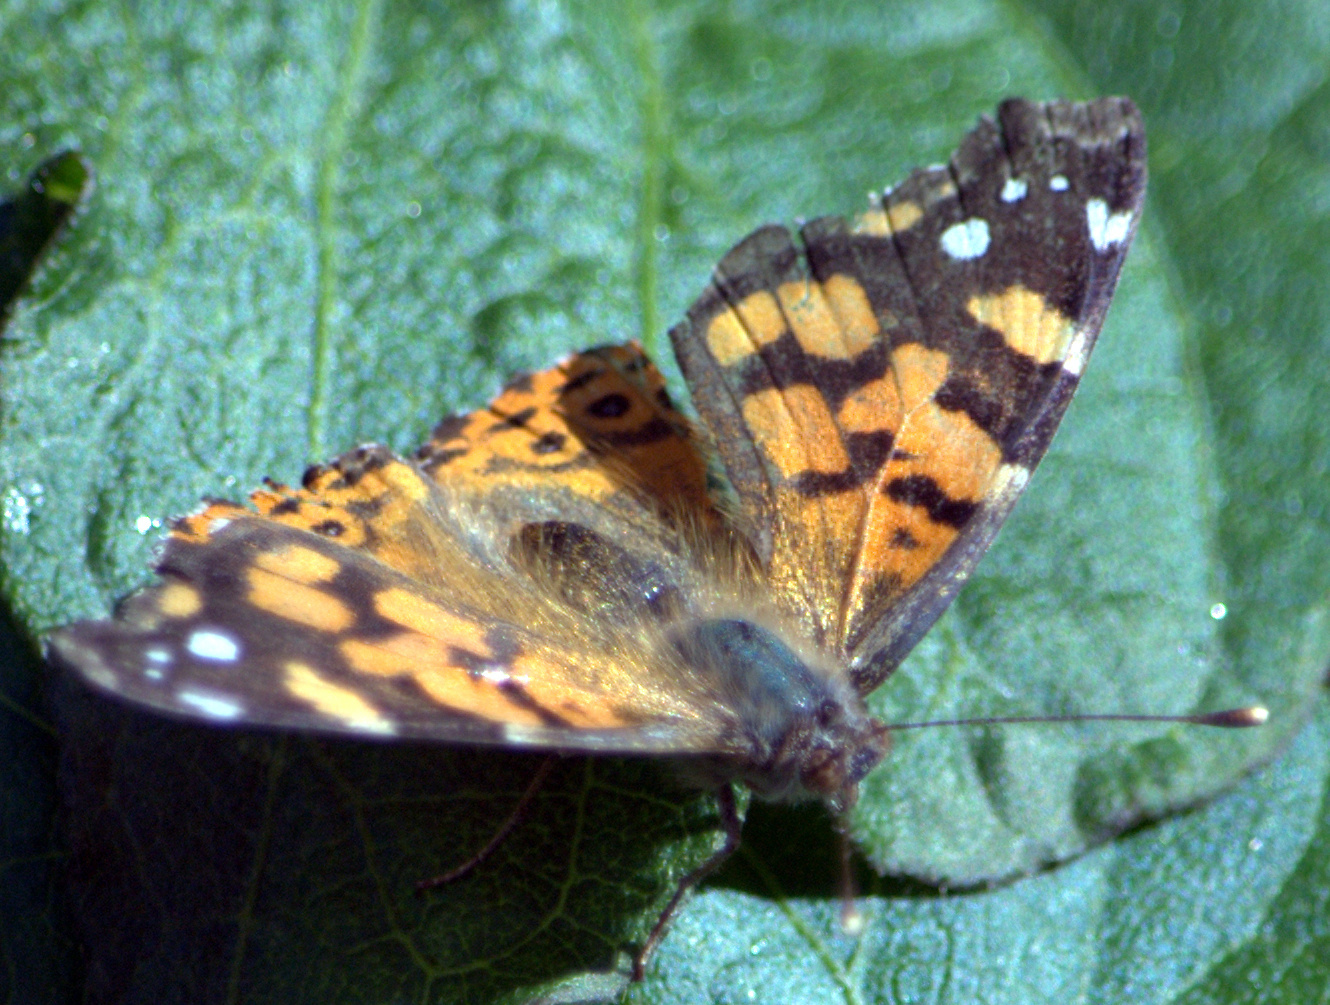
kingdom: Animalia
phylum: Arthropoda
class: Insecta
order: Lepidoptera
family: Nymphalidae
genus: Vanessa
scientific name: Vanessa carye
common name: Subtropical lady
